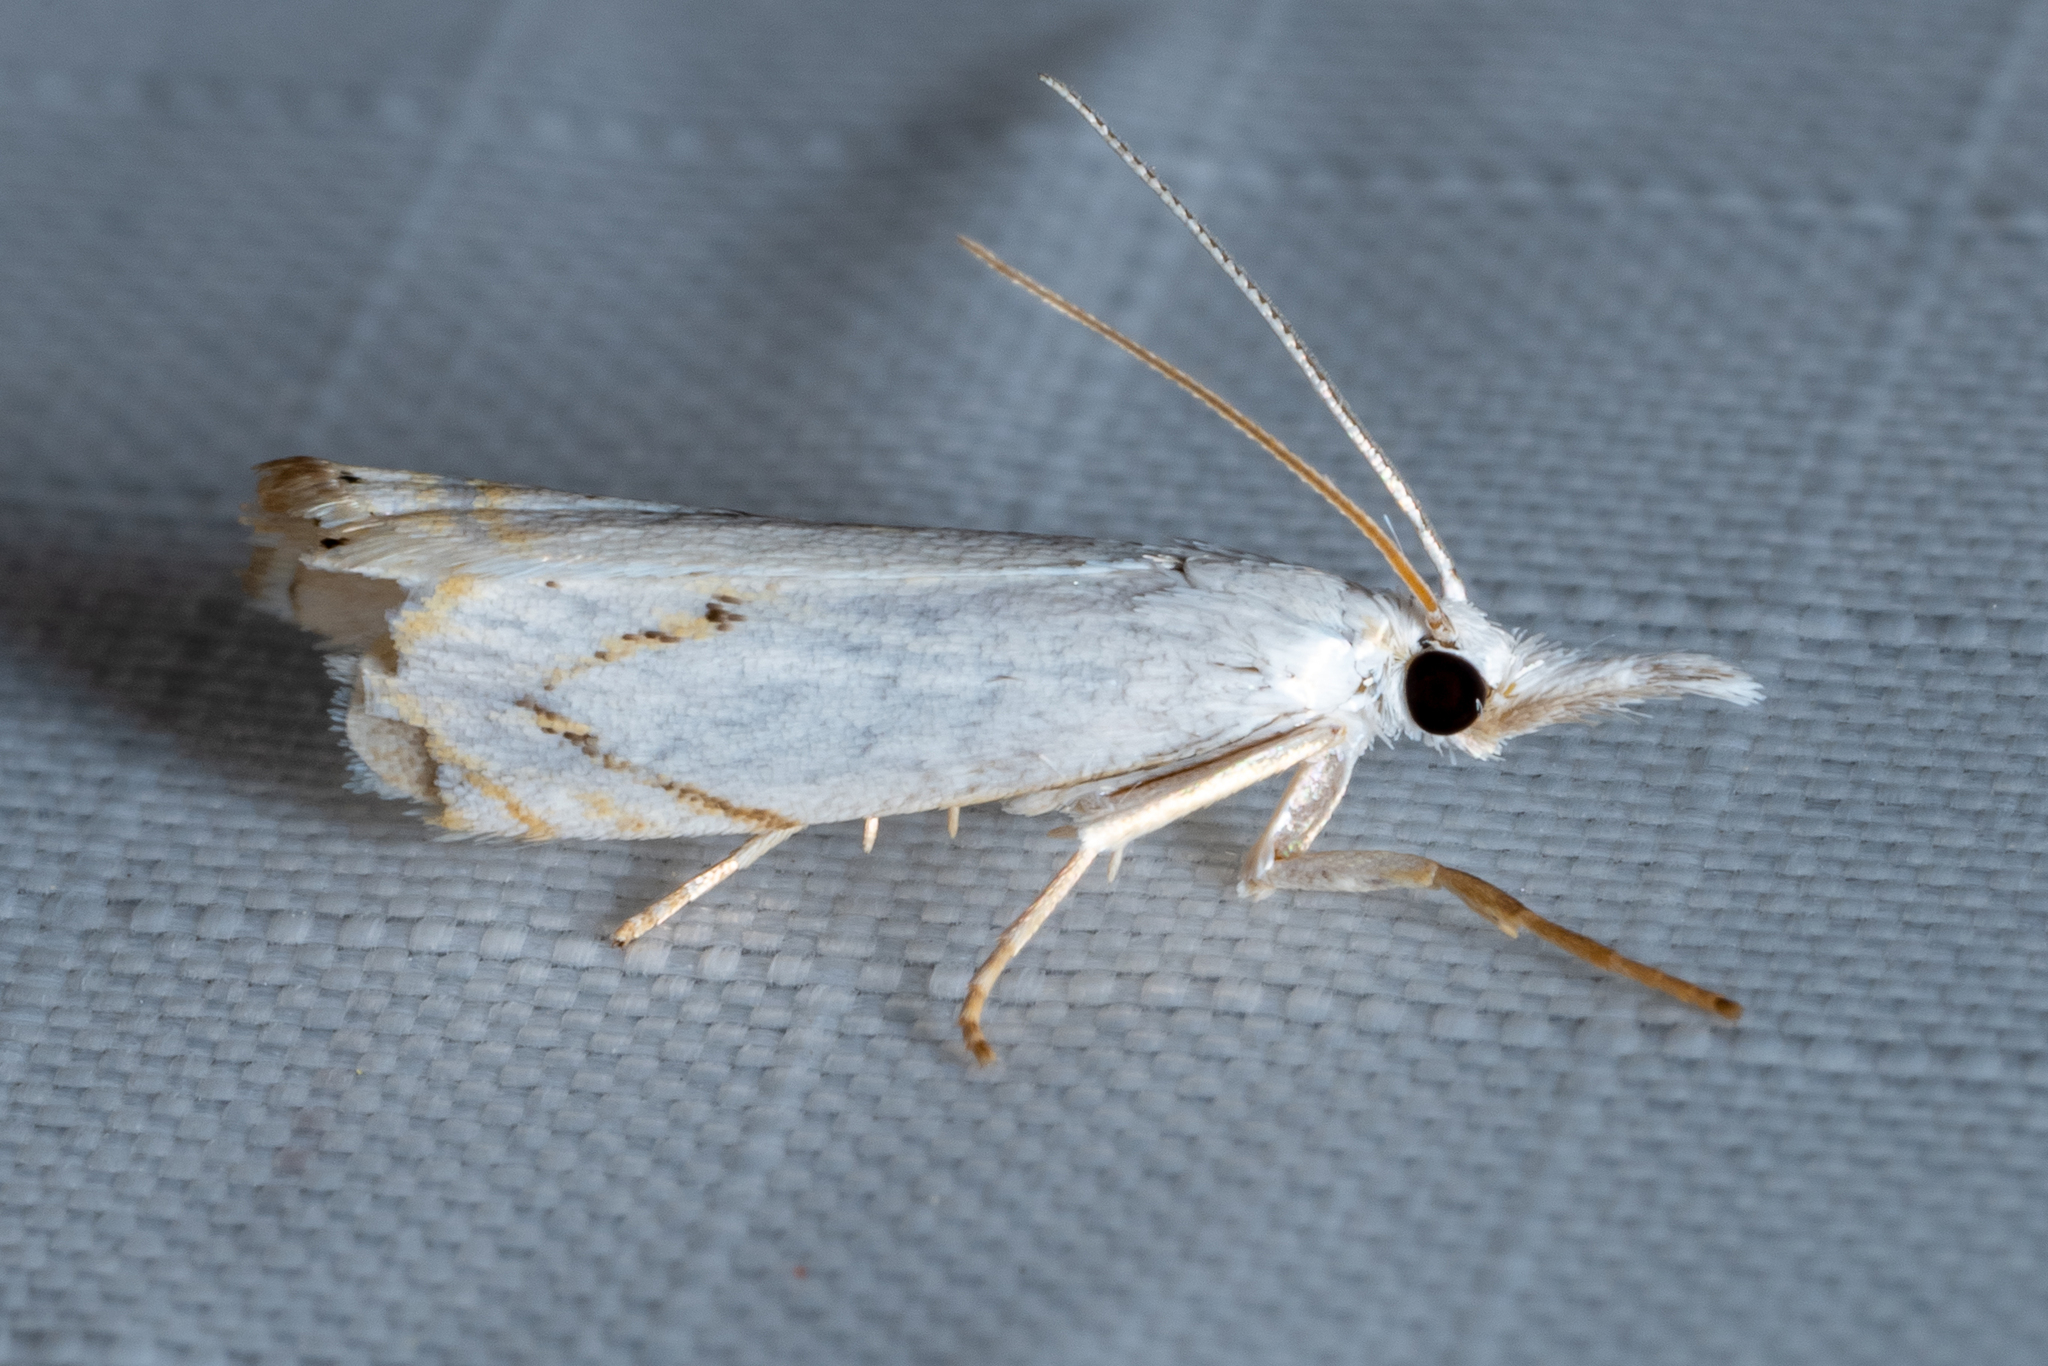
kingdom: Animalia
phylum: Arthropoda
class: Insecta
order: Lepidoptera
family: Crambidae
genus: Crambus
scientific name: Crambus albellus
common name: Small white grass-veneer
